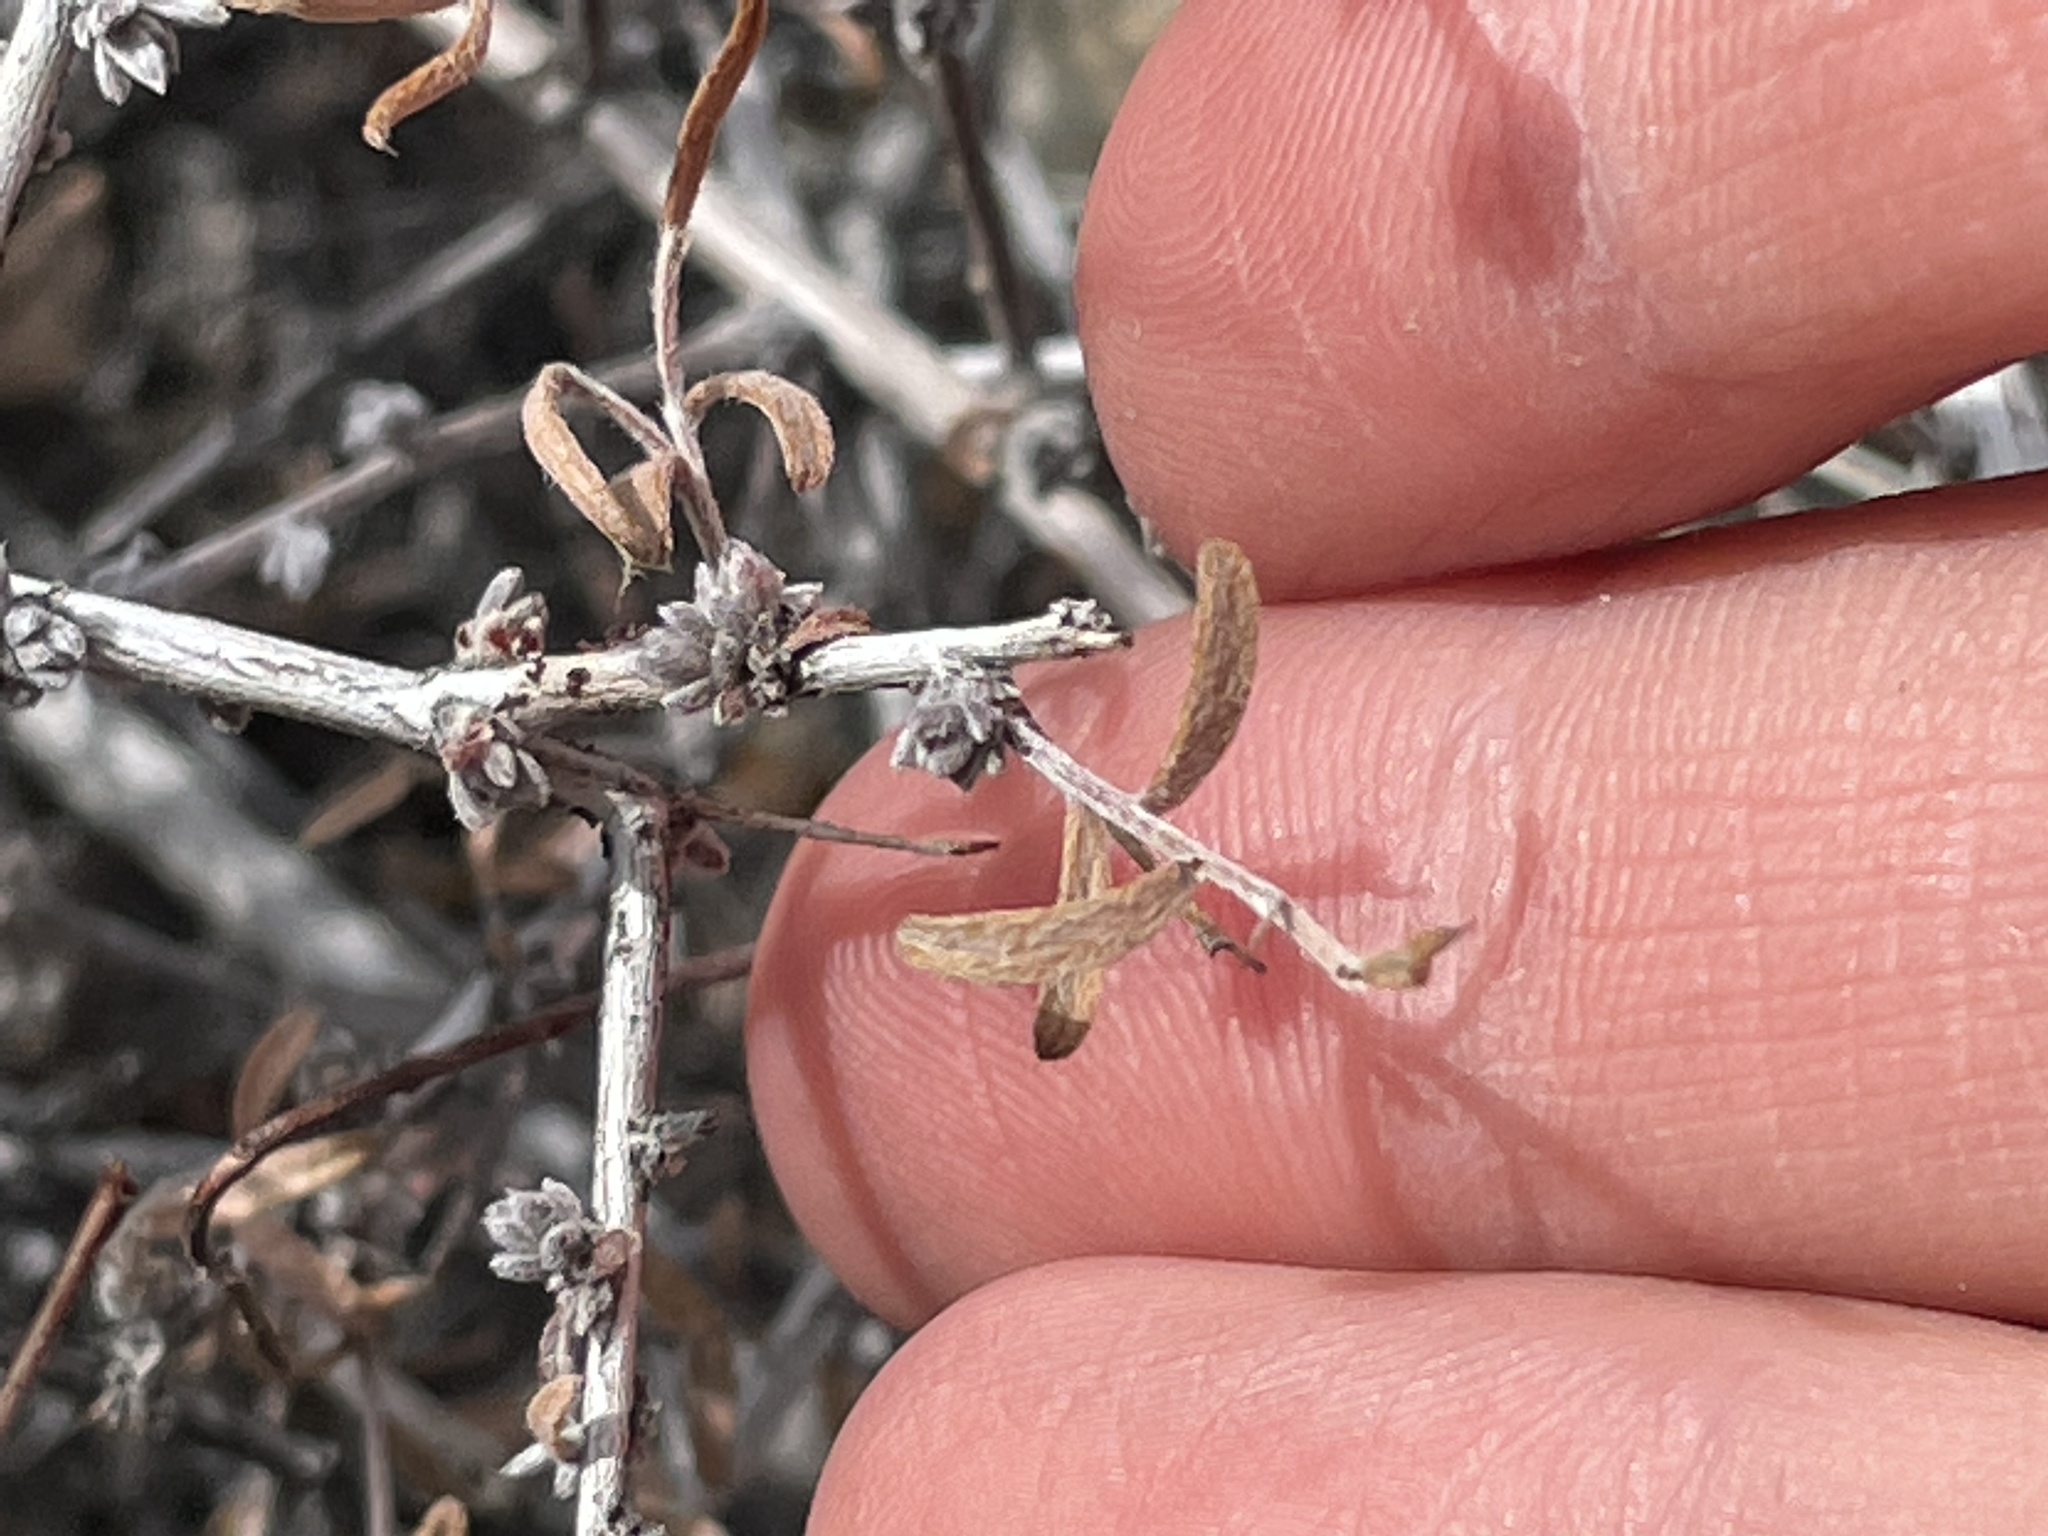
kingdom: Plantae
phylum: Tracheophyta
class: Magnoliopsida
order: Zygophyllales
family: Krameriaceae
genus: Krameria
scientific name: Krameria erecta
